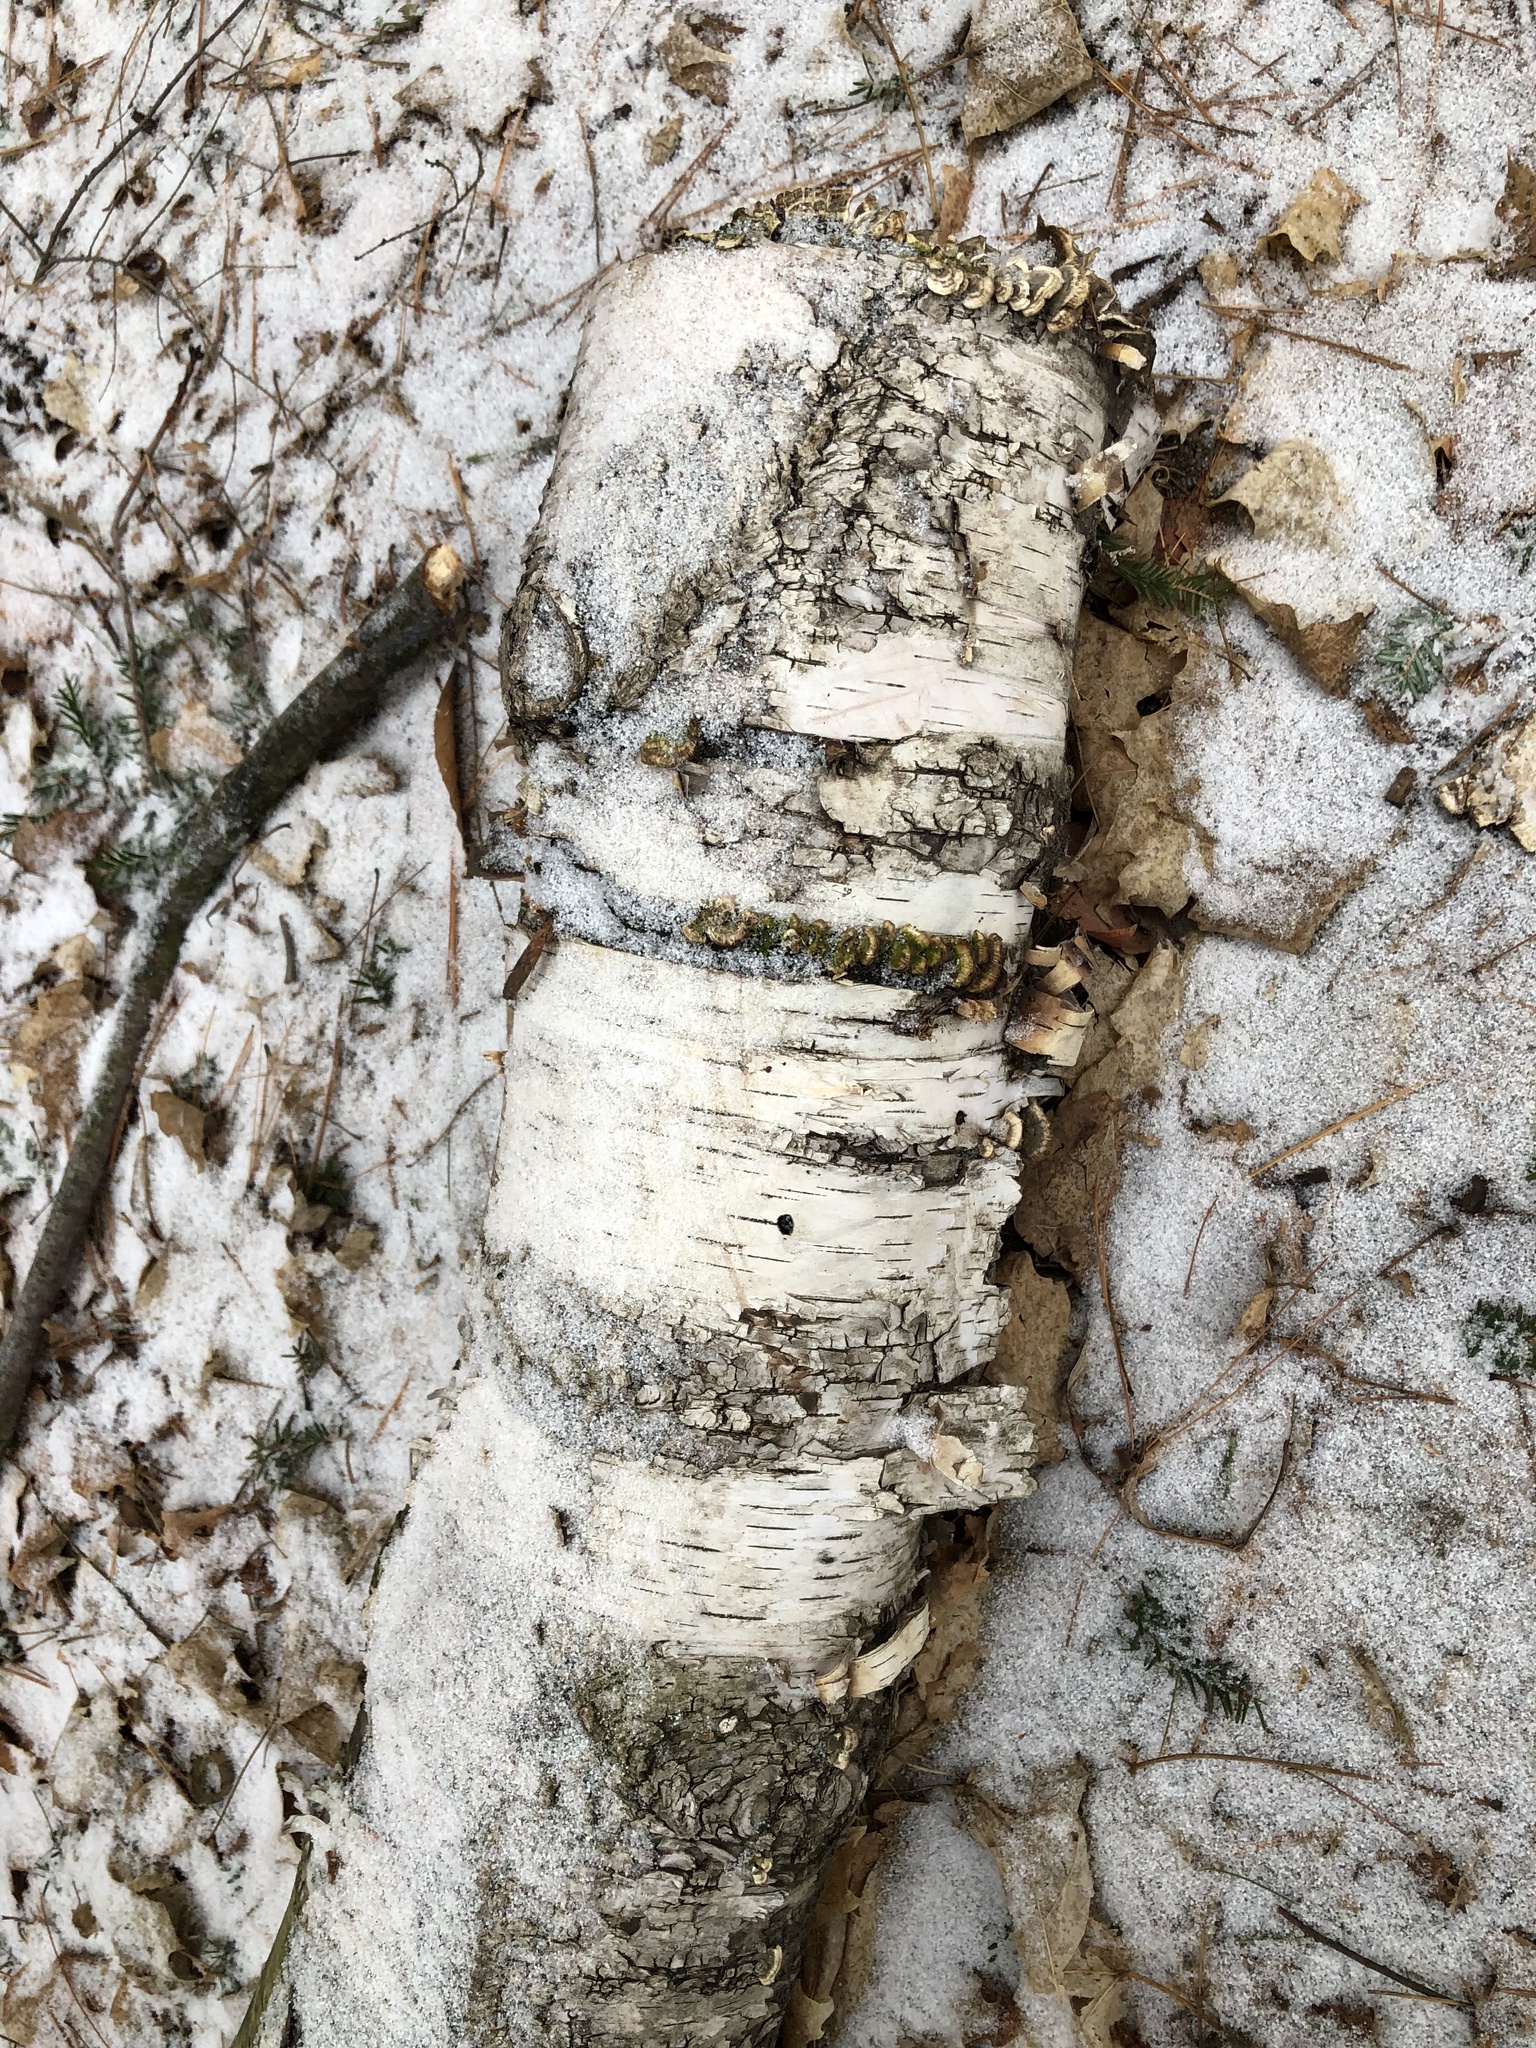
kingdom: Plantae
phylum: Tracheophyta
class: Magnoliopsida
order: Fagales
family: Betulaceae
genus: Betula
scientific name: Betula papyrifera
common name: Paper birch
